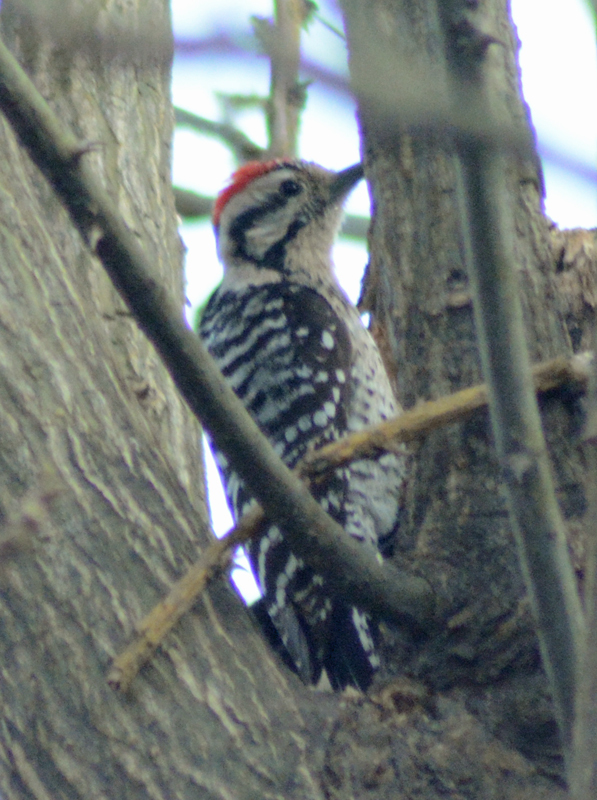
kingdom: Animalia
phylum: Chordata
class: Aves
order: Piciformes
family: Picidae
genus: Dryobates
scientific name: Dryobates scalaris
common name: Ladder-backed woodpecker
